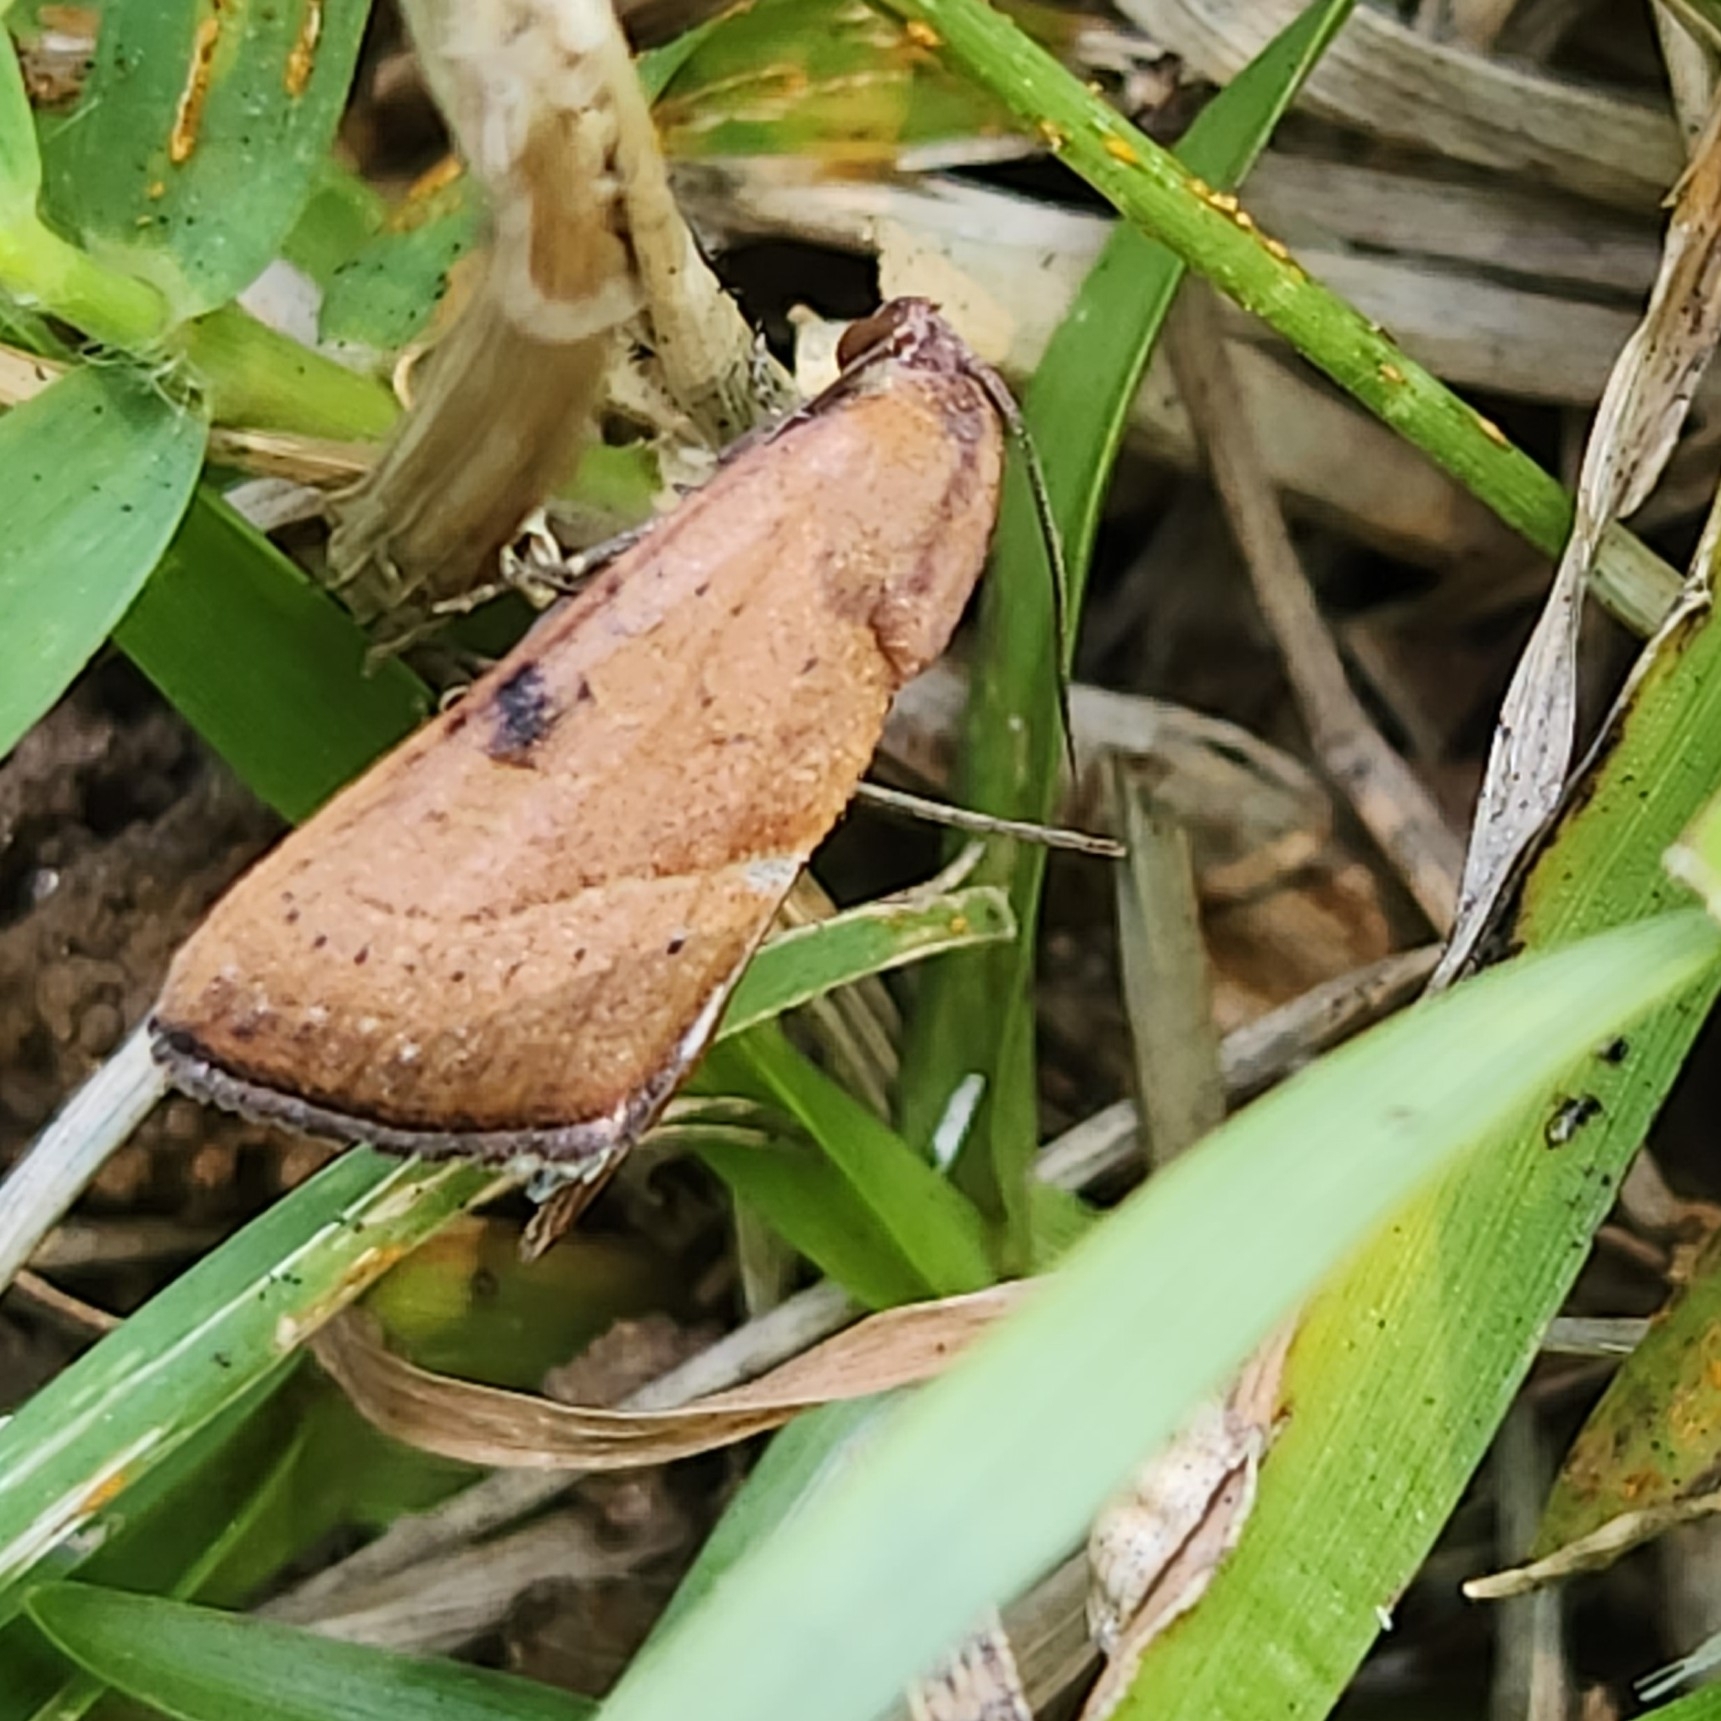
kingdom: Animalia
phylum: Arthropoda
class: Insecta
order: Lepidoptera
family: Noctuidae
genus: Galgula
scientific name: Galgula partita
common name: Wedgeling
